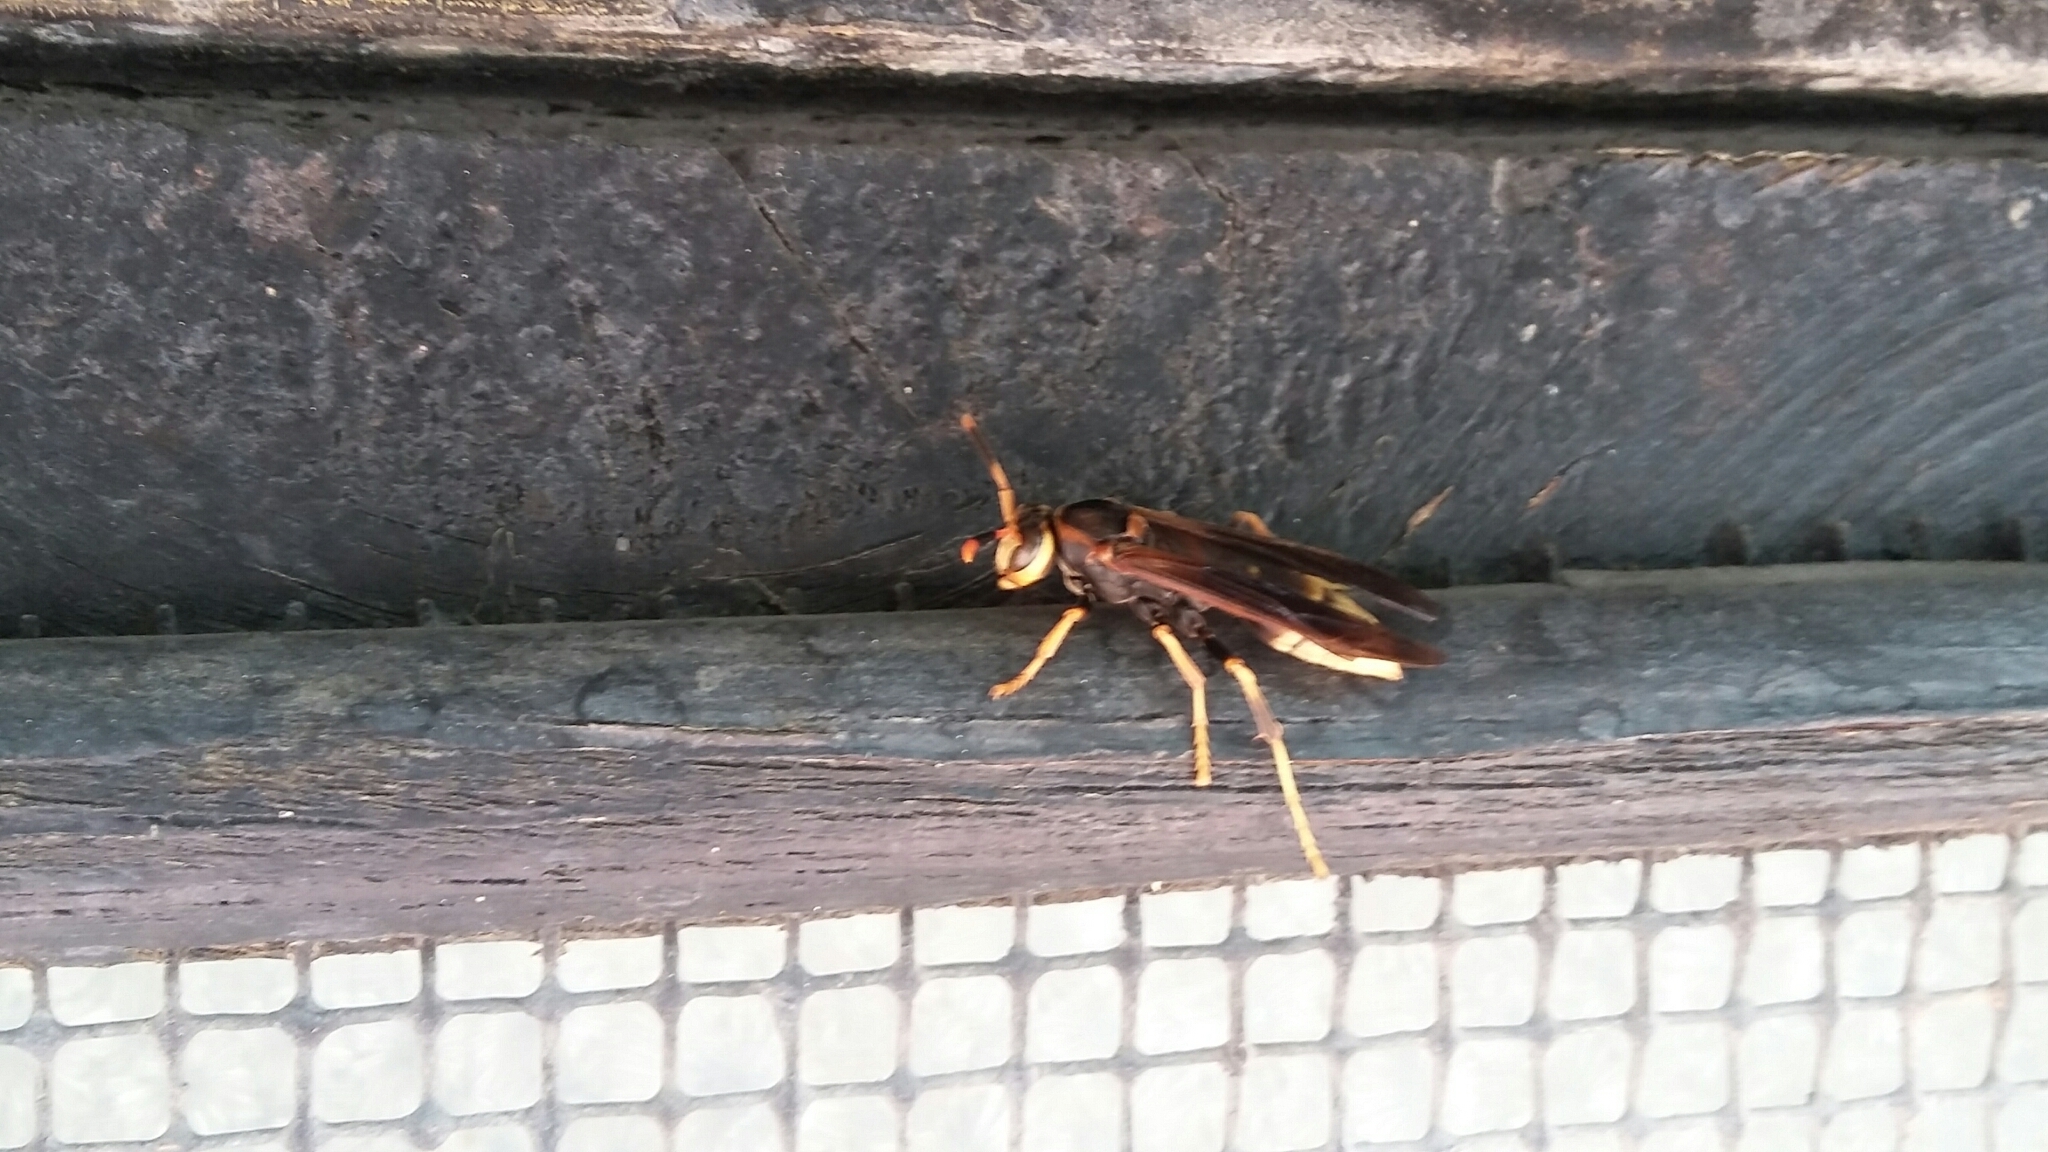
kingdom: Animalia
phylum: Arthropoda
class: Insecta
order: Hymenoptera
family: Eumenidae
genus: Polistes
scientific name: Polistes comanchus
